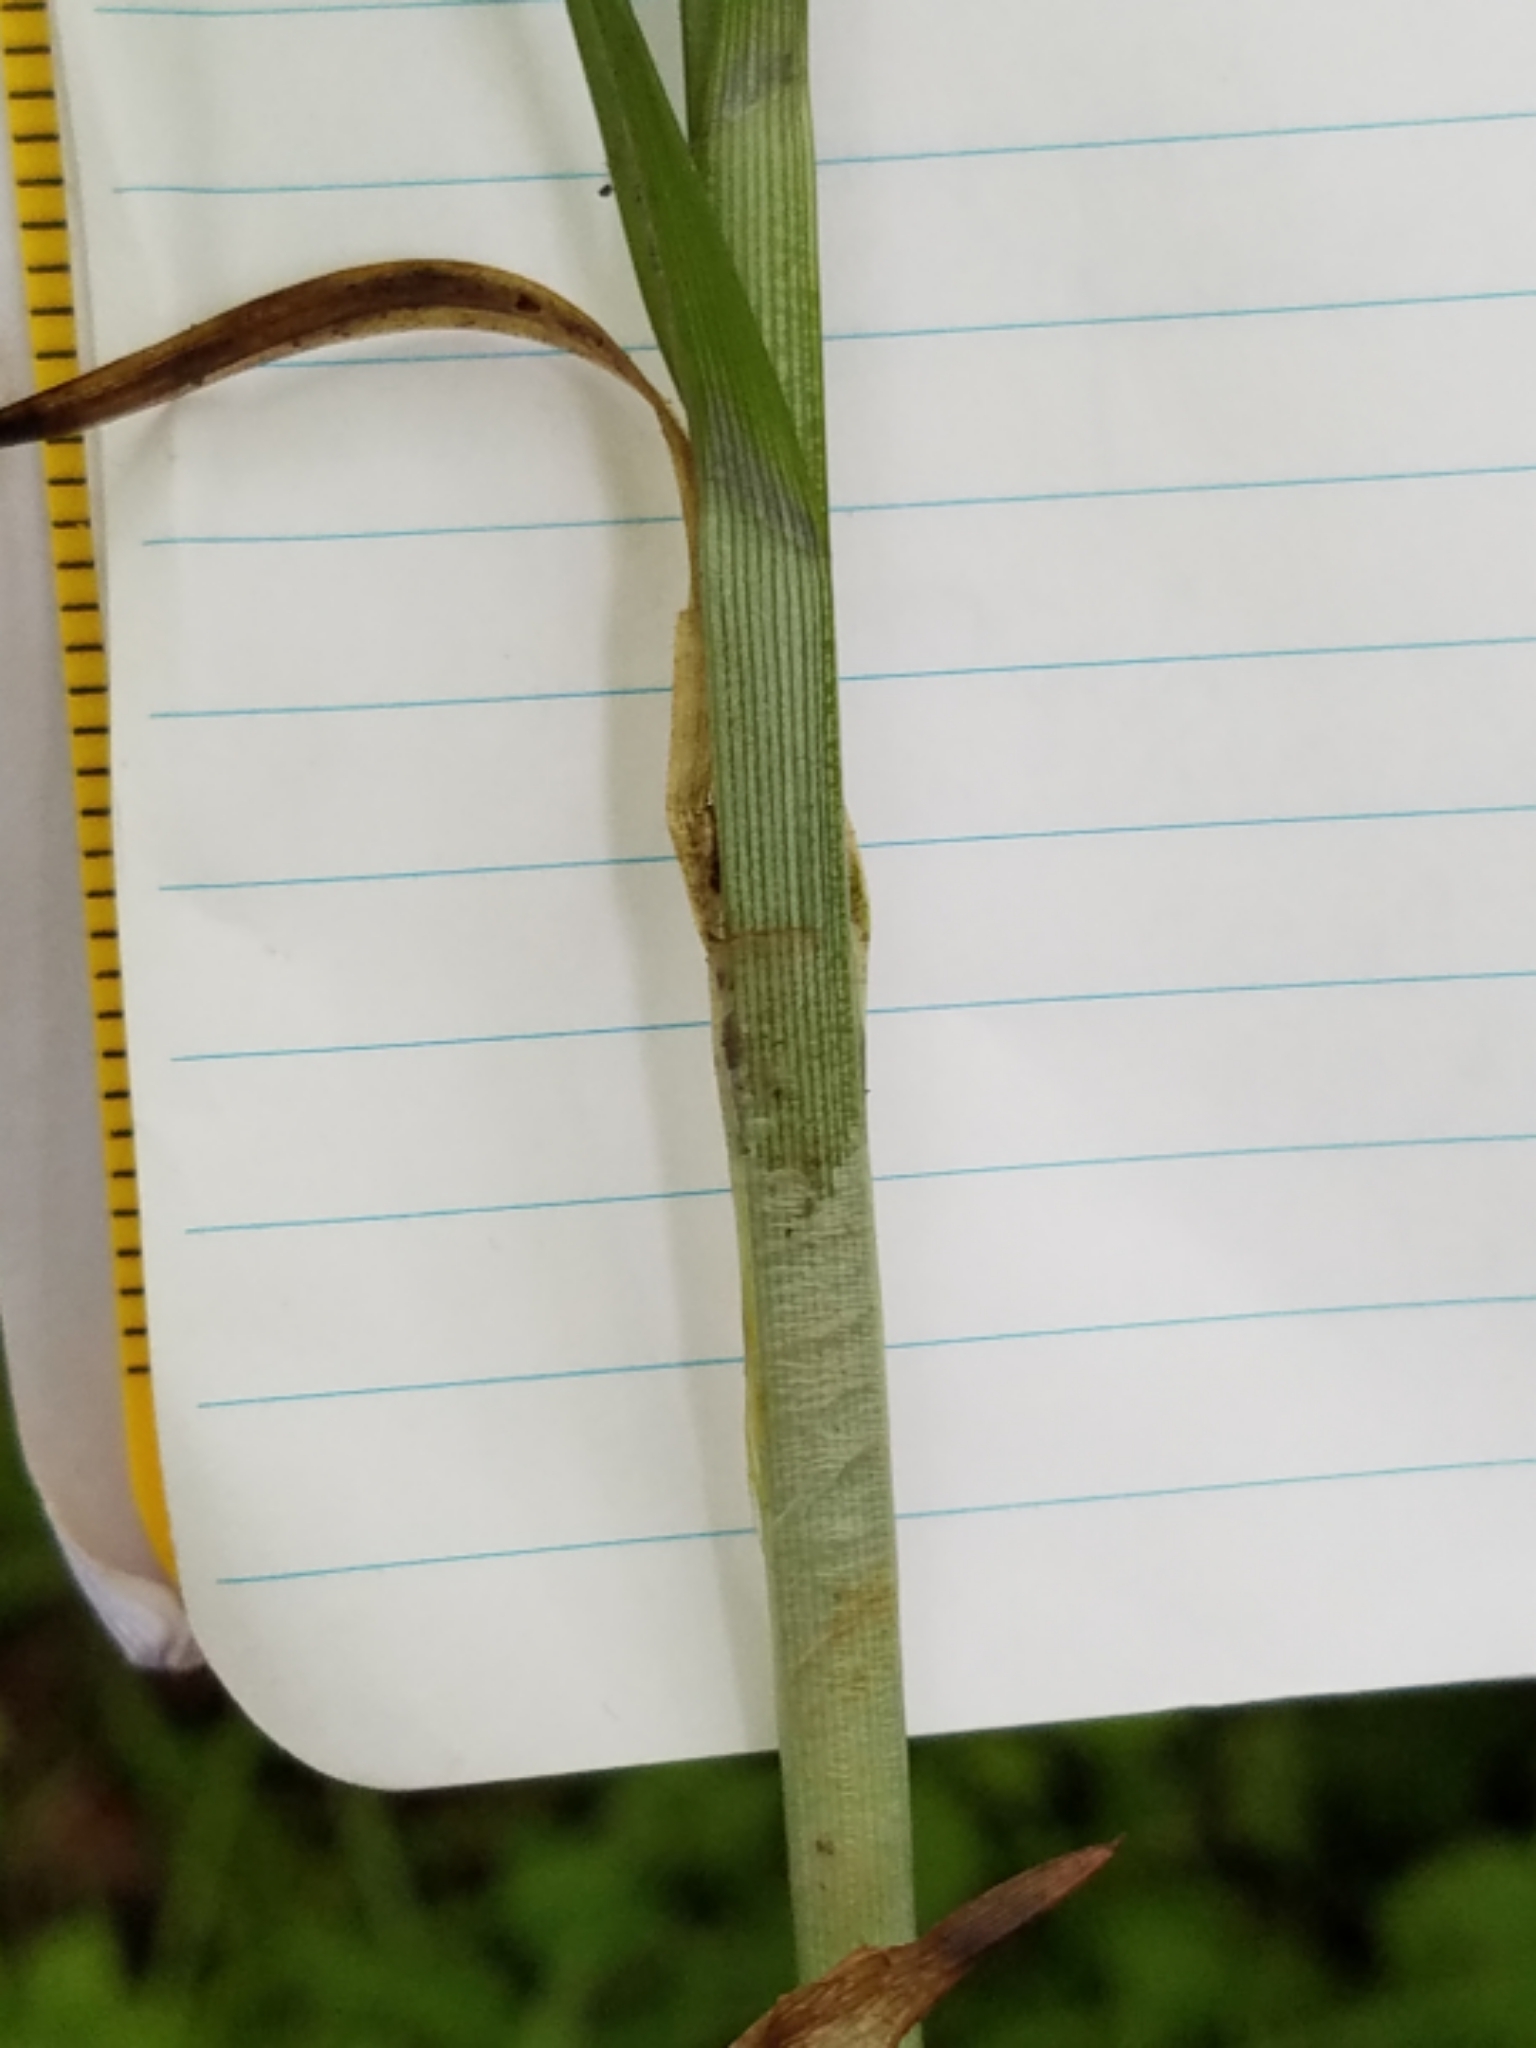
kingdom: Plantae
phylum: Tracheophyta
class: Liliopsida
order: Poales
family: Cyperaceae
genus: Carex
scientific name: Carex sparganioides
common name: Burreed sedge
